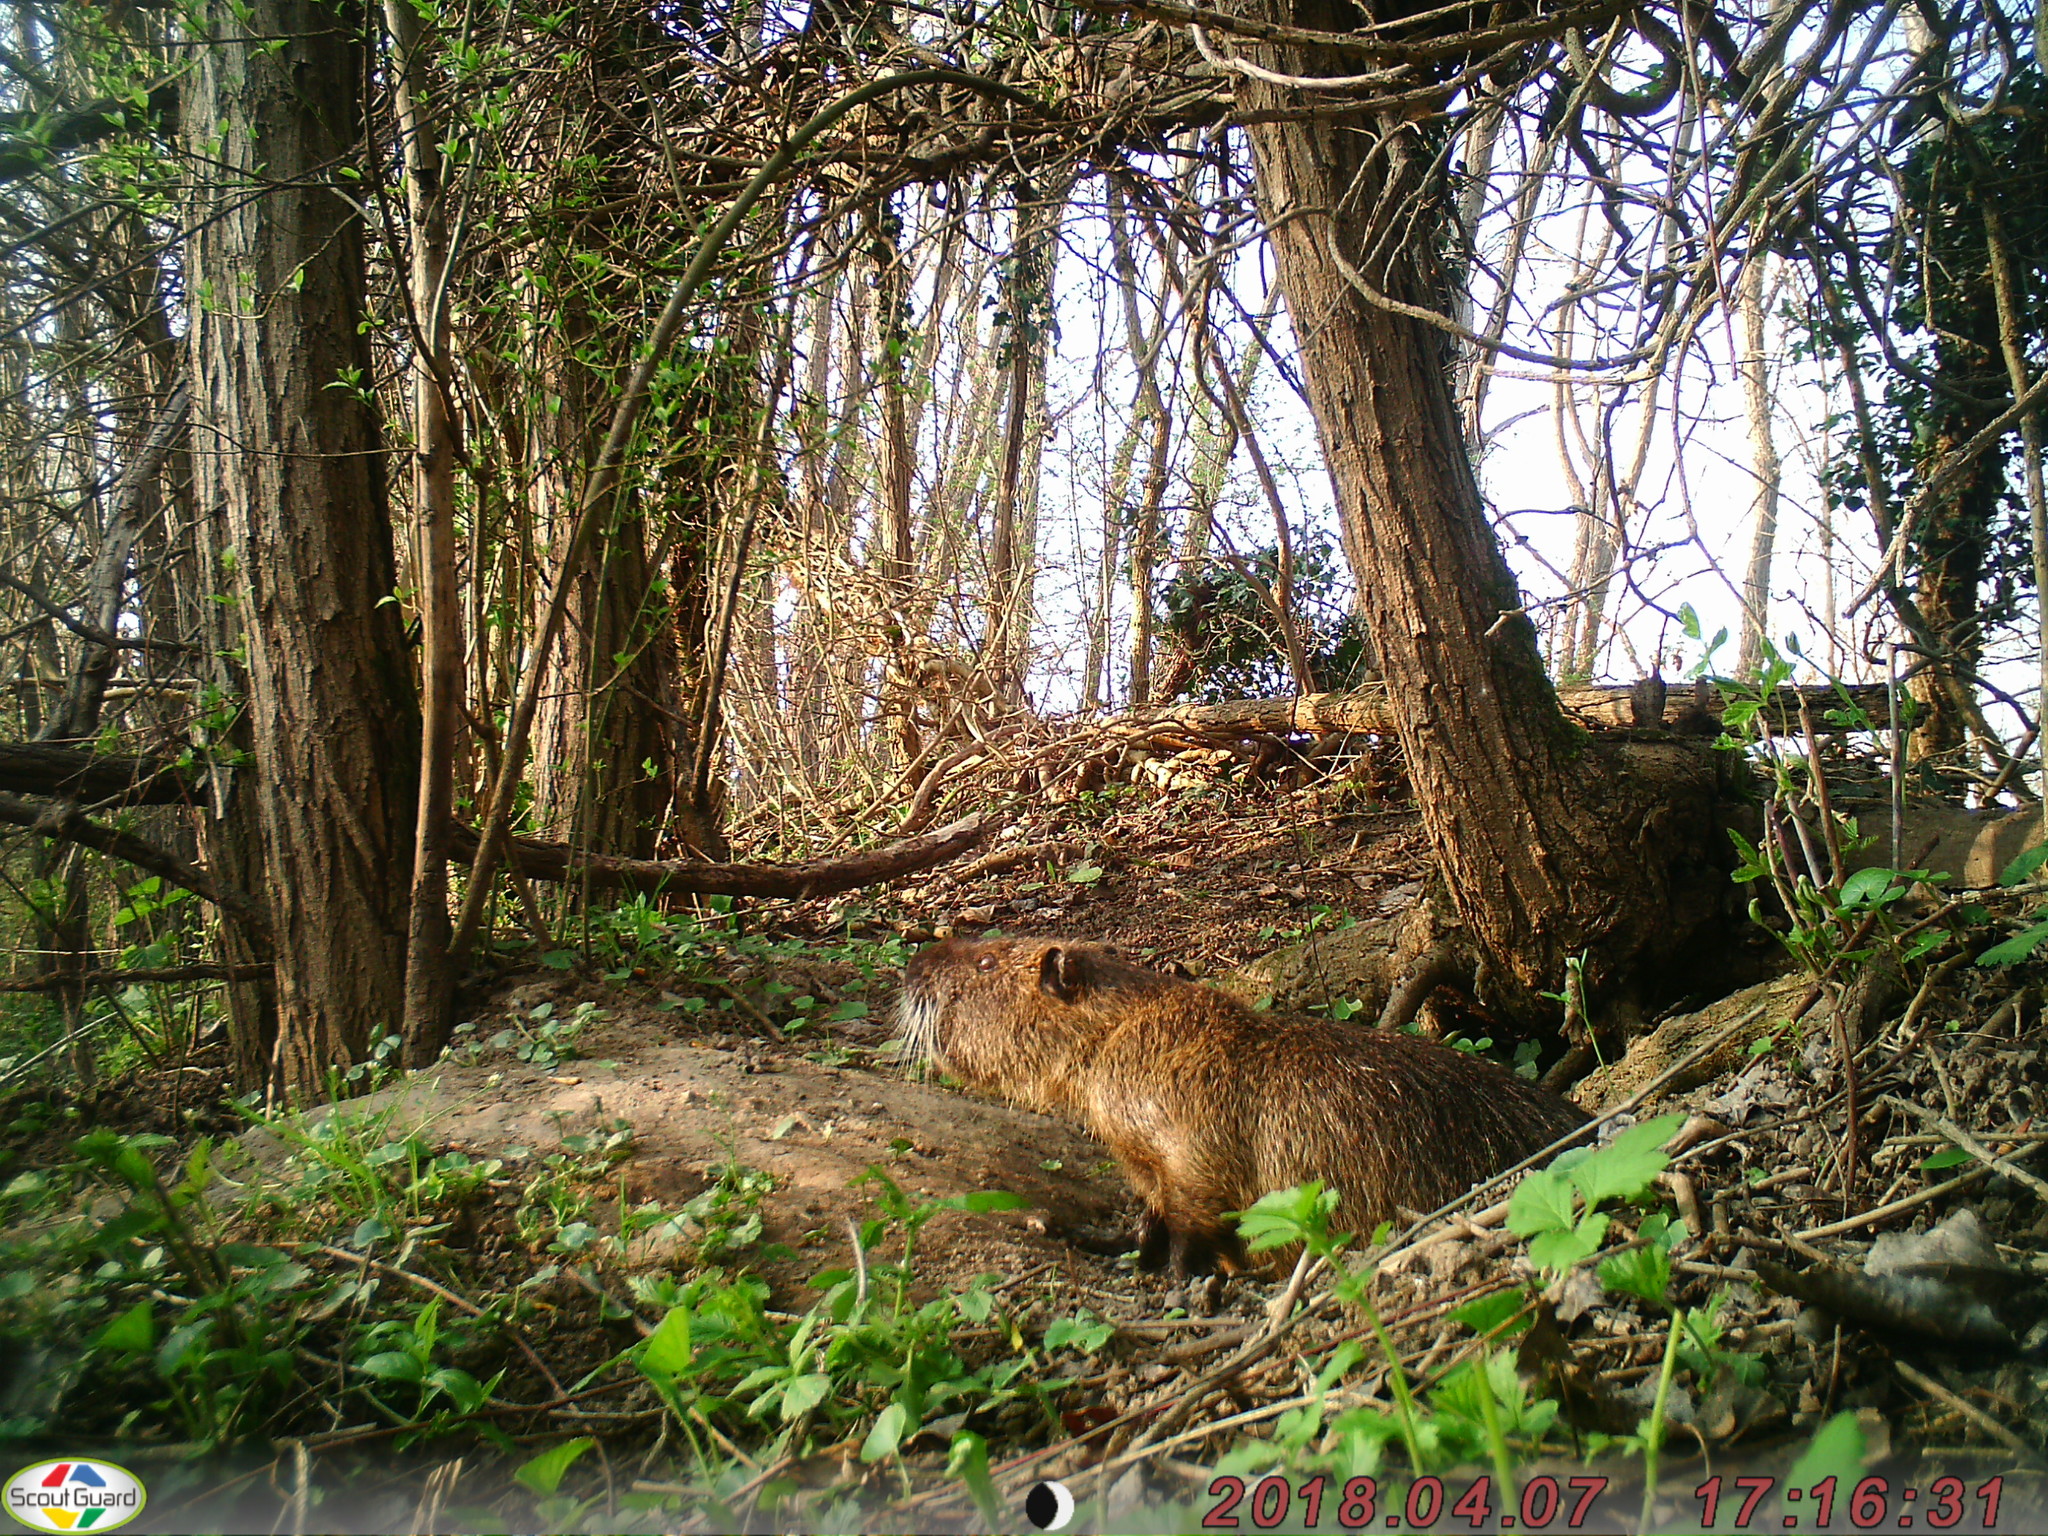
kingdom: Animalia
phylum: Chordata
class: Mammalia
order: Rodentia
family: Myocastoridae
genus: Myocastor
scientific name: Myocastor coypus
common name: Coypu
